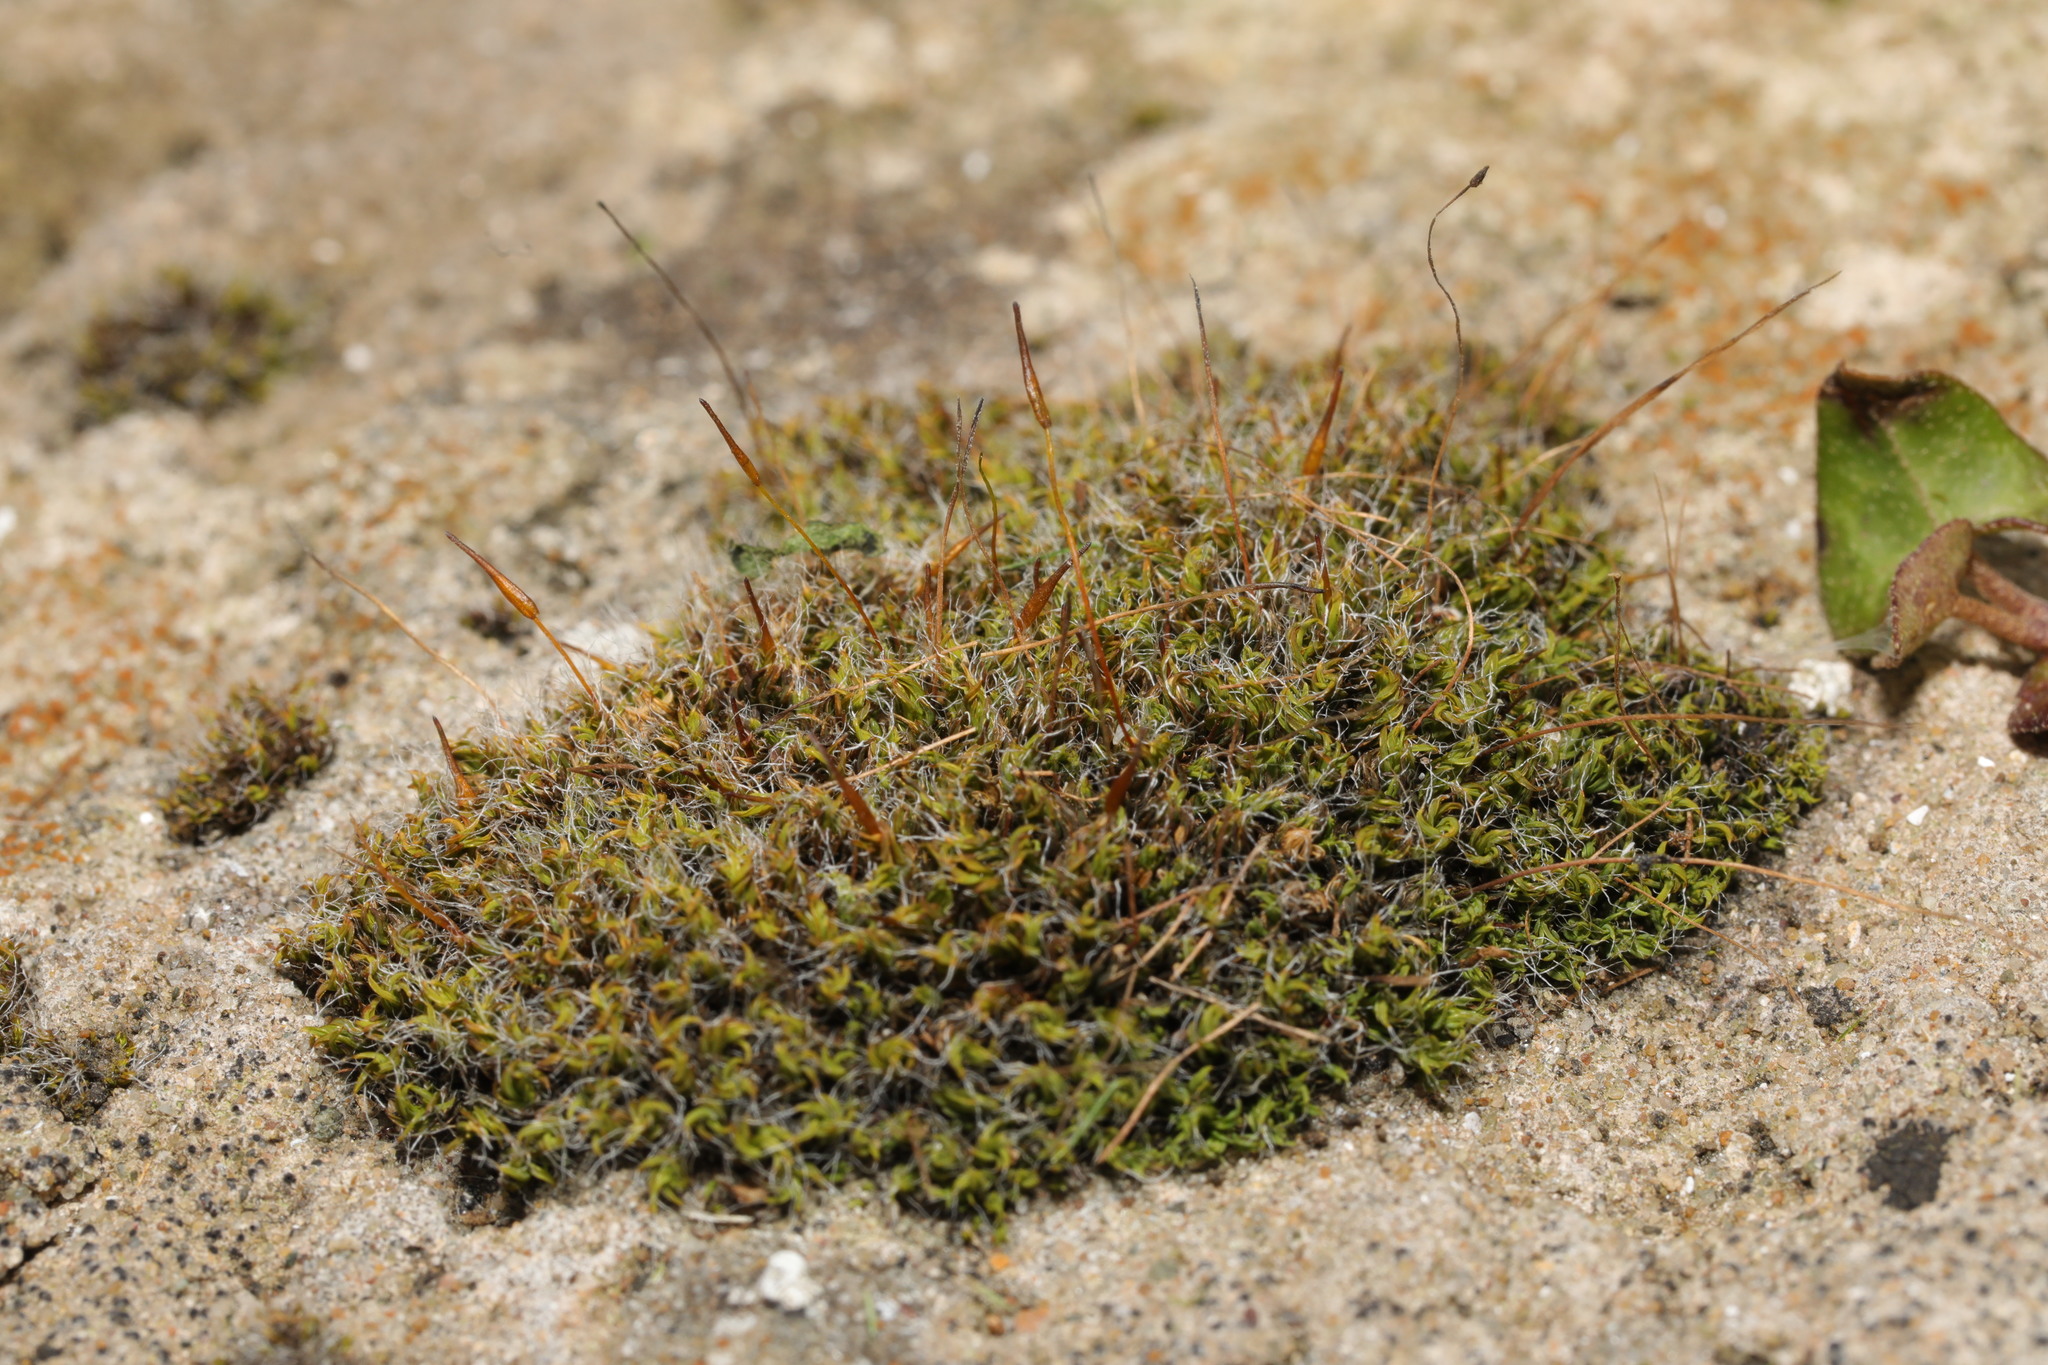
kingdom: Plantae
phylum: Bryophyta
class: Bryopsida
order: Pottiales
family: Pottiaceae
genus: Tortula
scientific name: Tortula muralis
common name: Wall screw-moss
